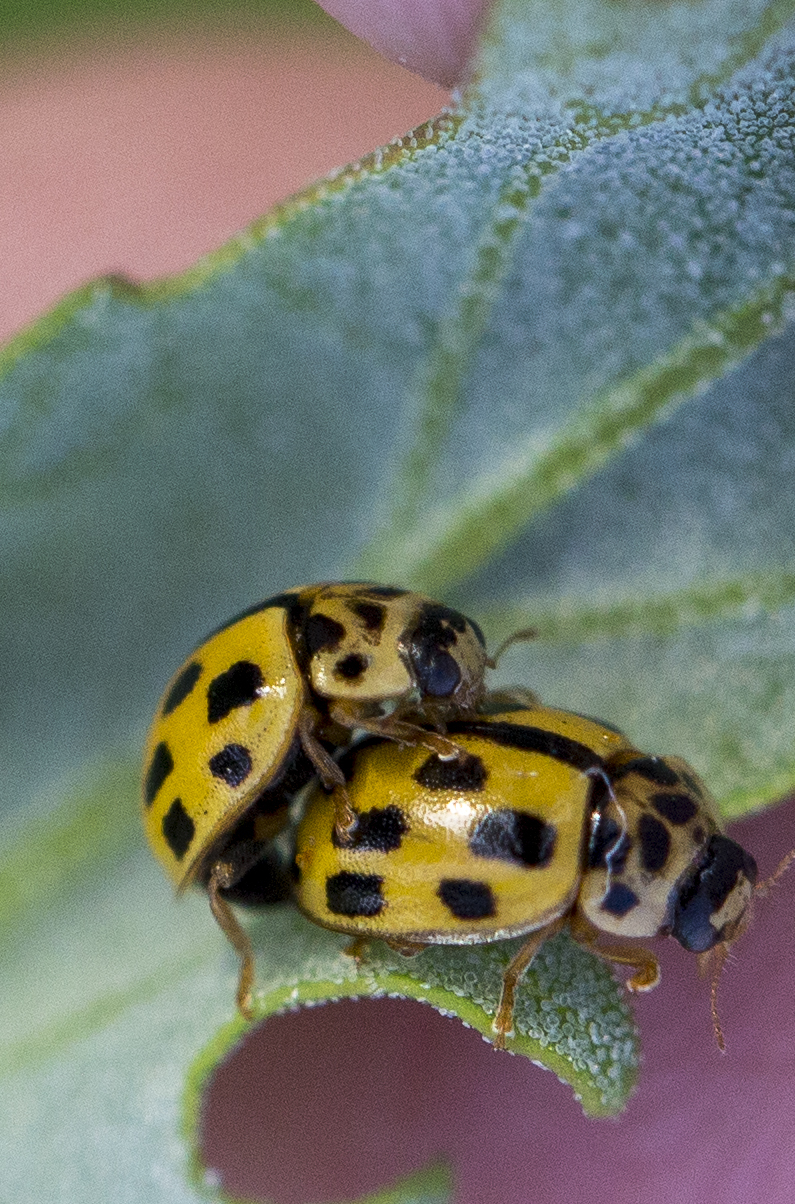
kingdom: Animalia
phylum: Arthropoda
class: Insecta
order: Coleoptera
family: Coccinellidae
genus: Propylaea
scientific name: Propylaea quatuordecimpunctata
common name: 14-spotted ladybird beetle
